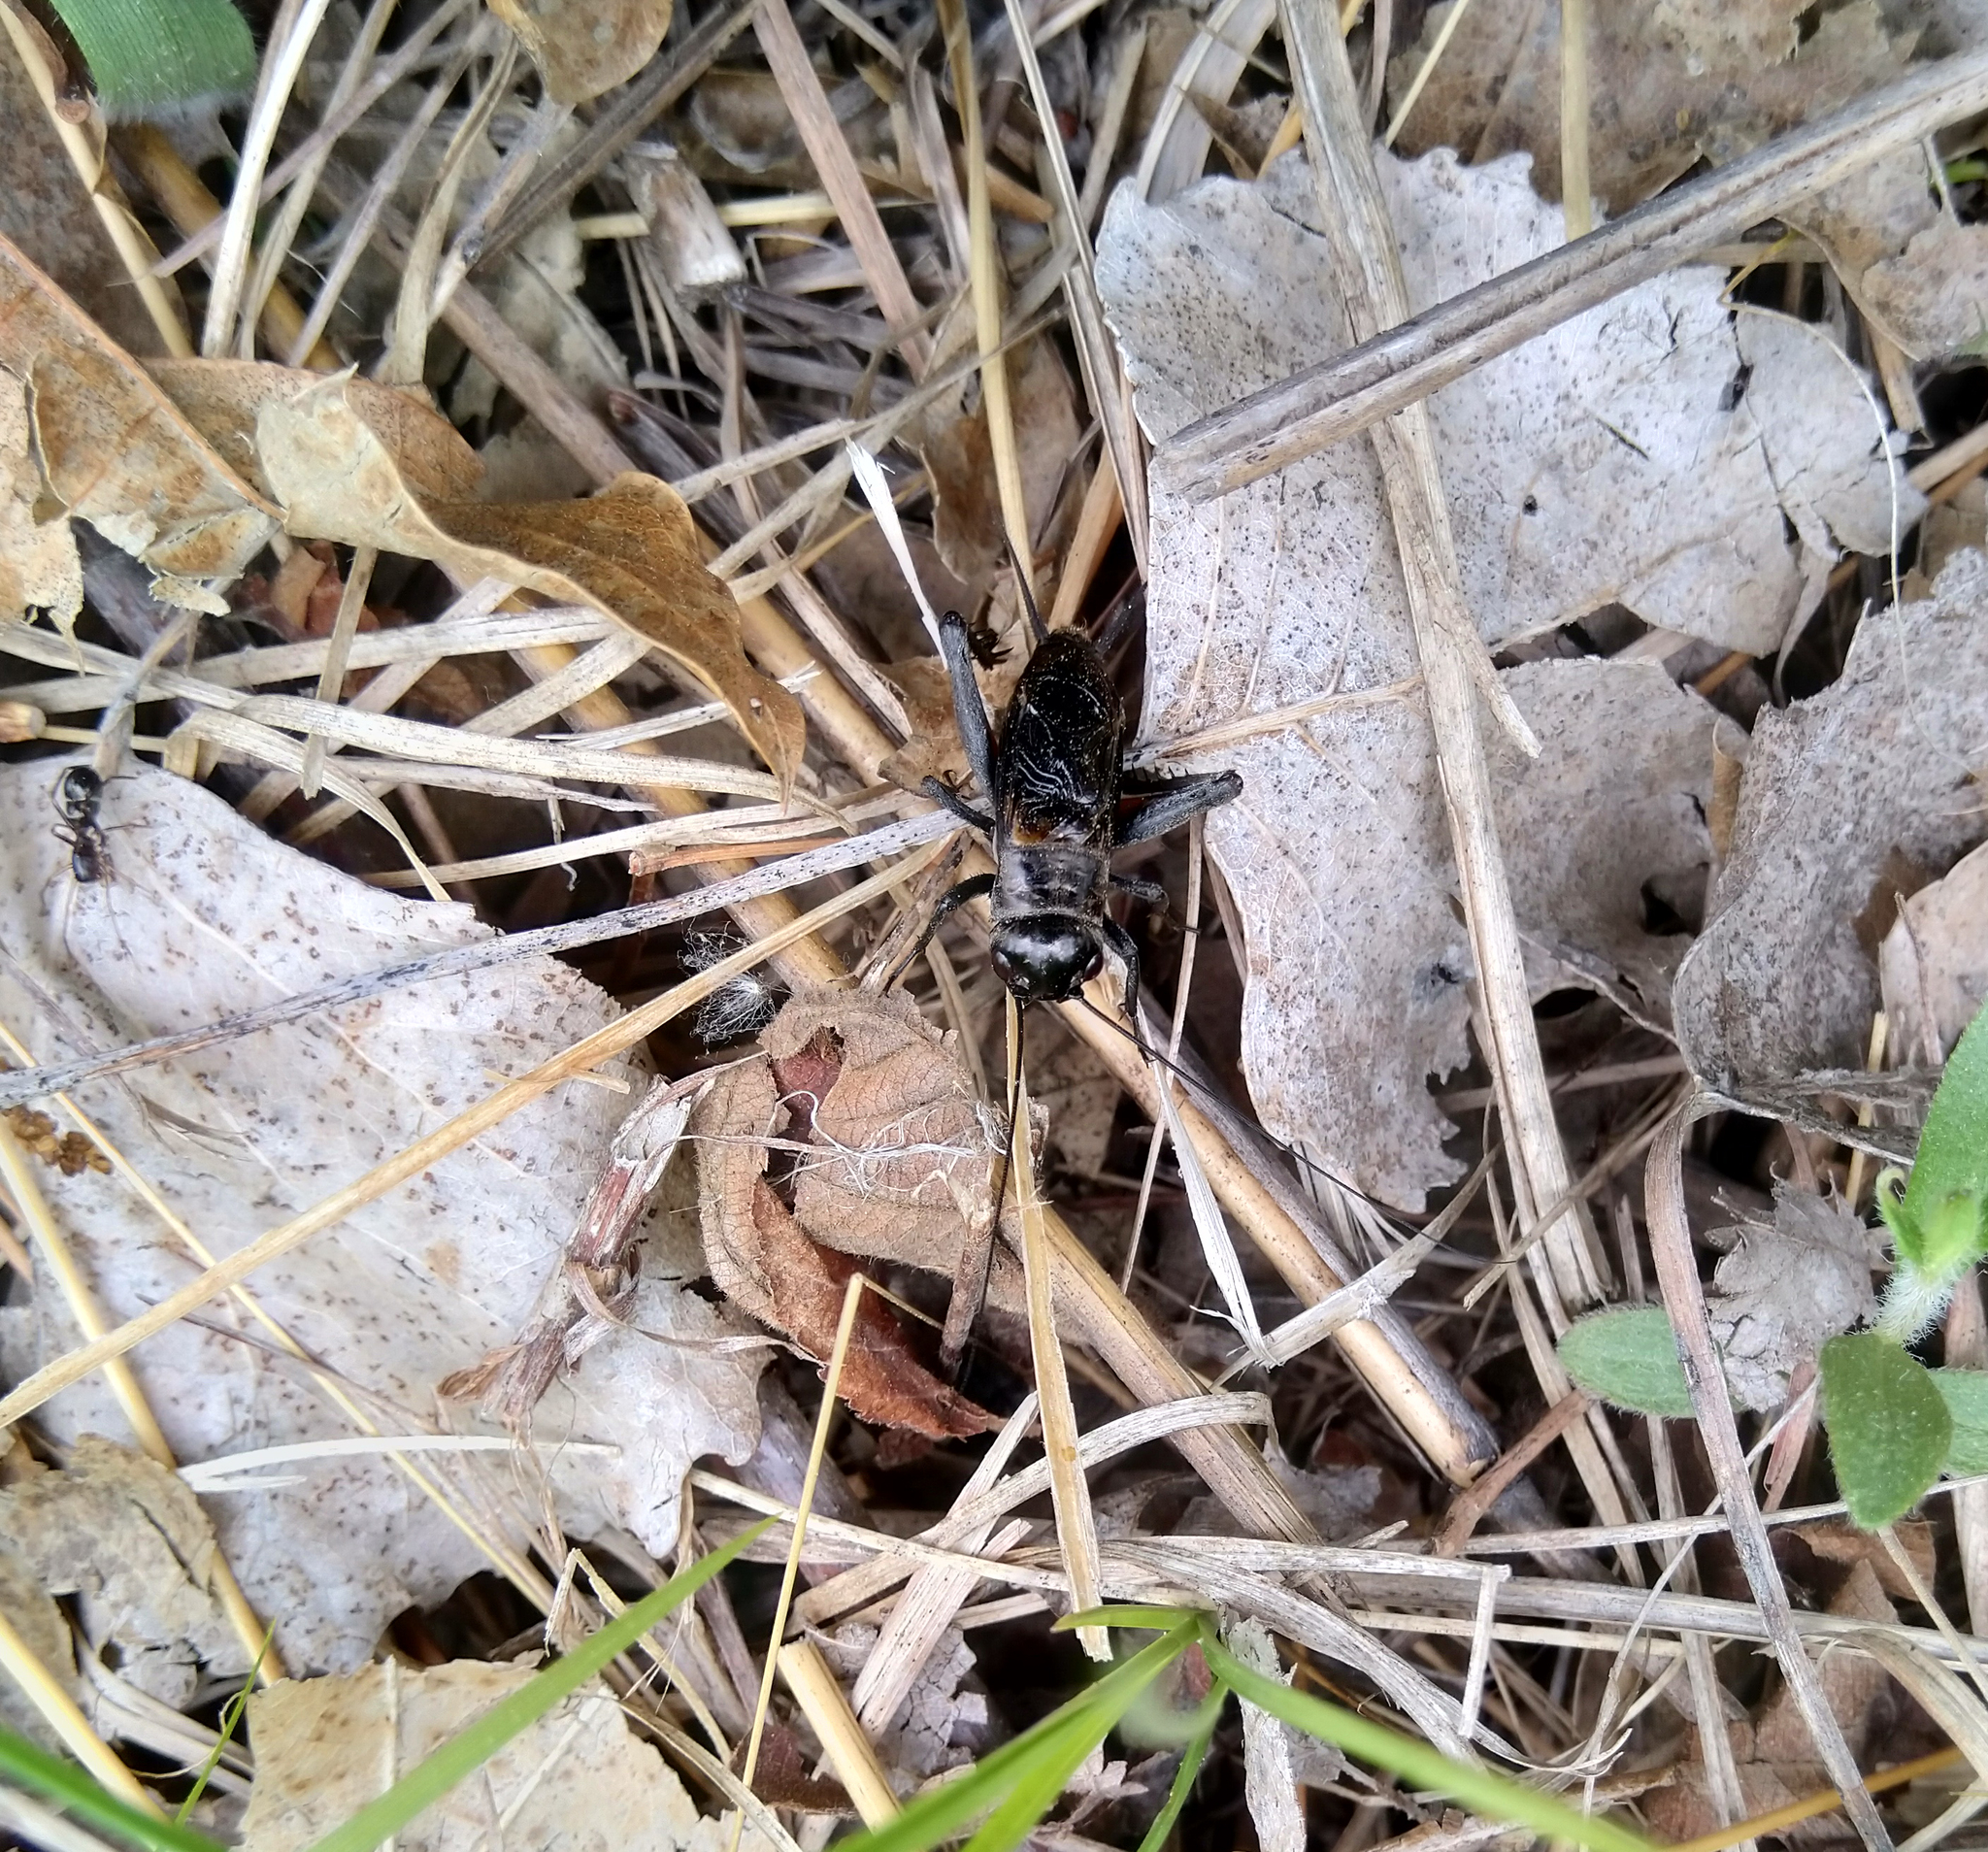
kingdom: Animalia
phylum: Arthropoda
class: Insecta
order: Orthoptera
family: Gryllidae
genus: Gryllus
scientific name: Gryllus veletis
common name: Spring field cricket
